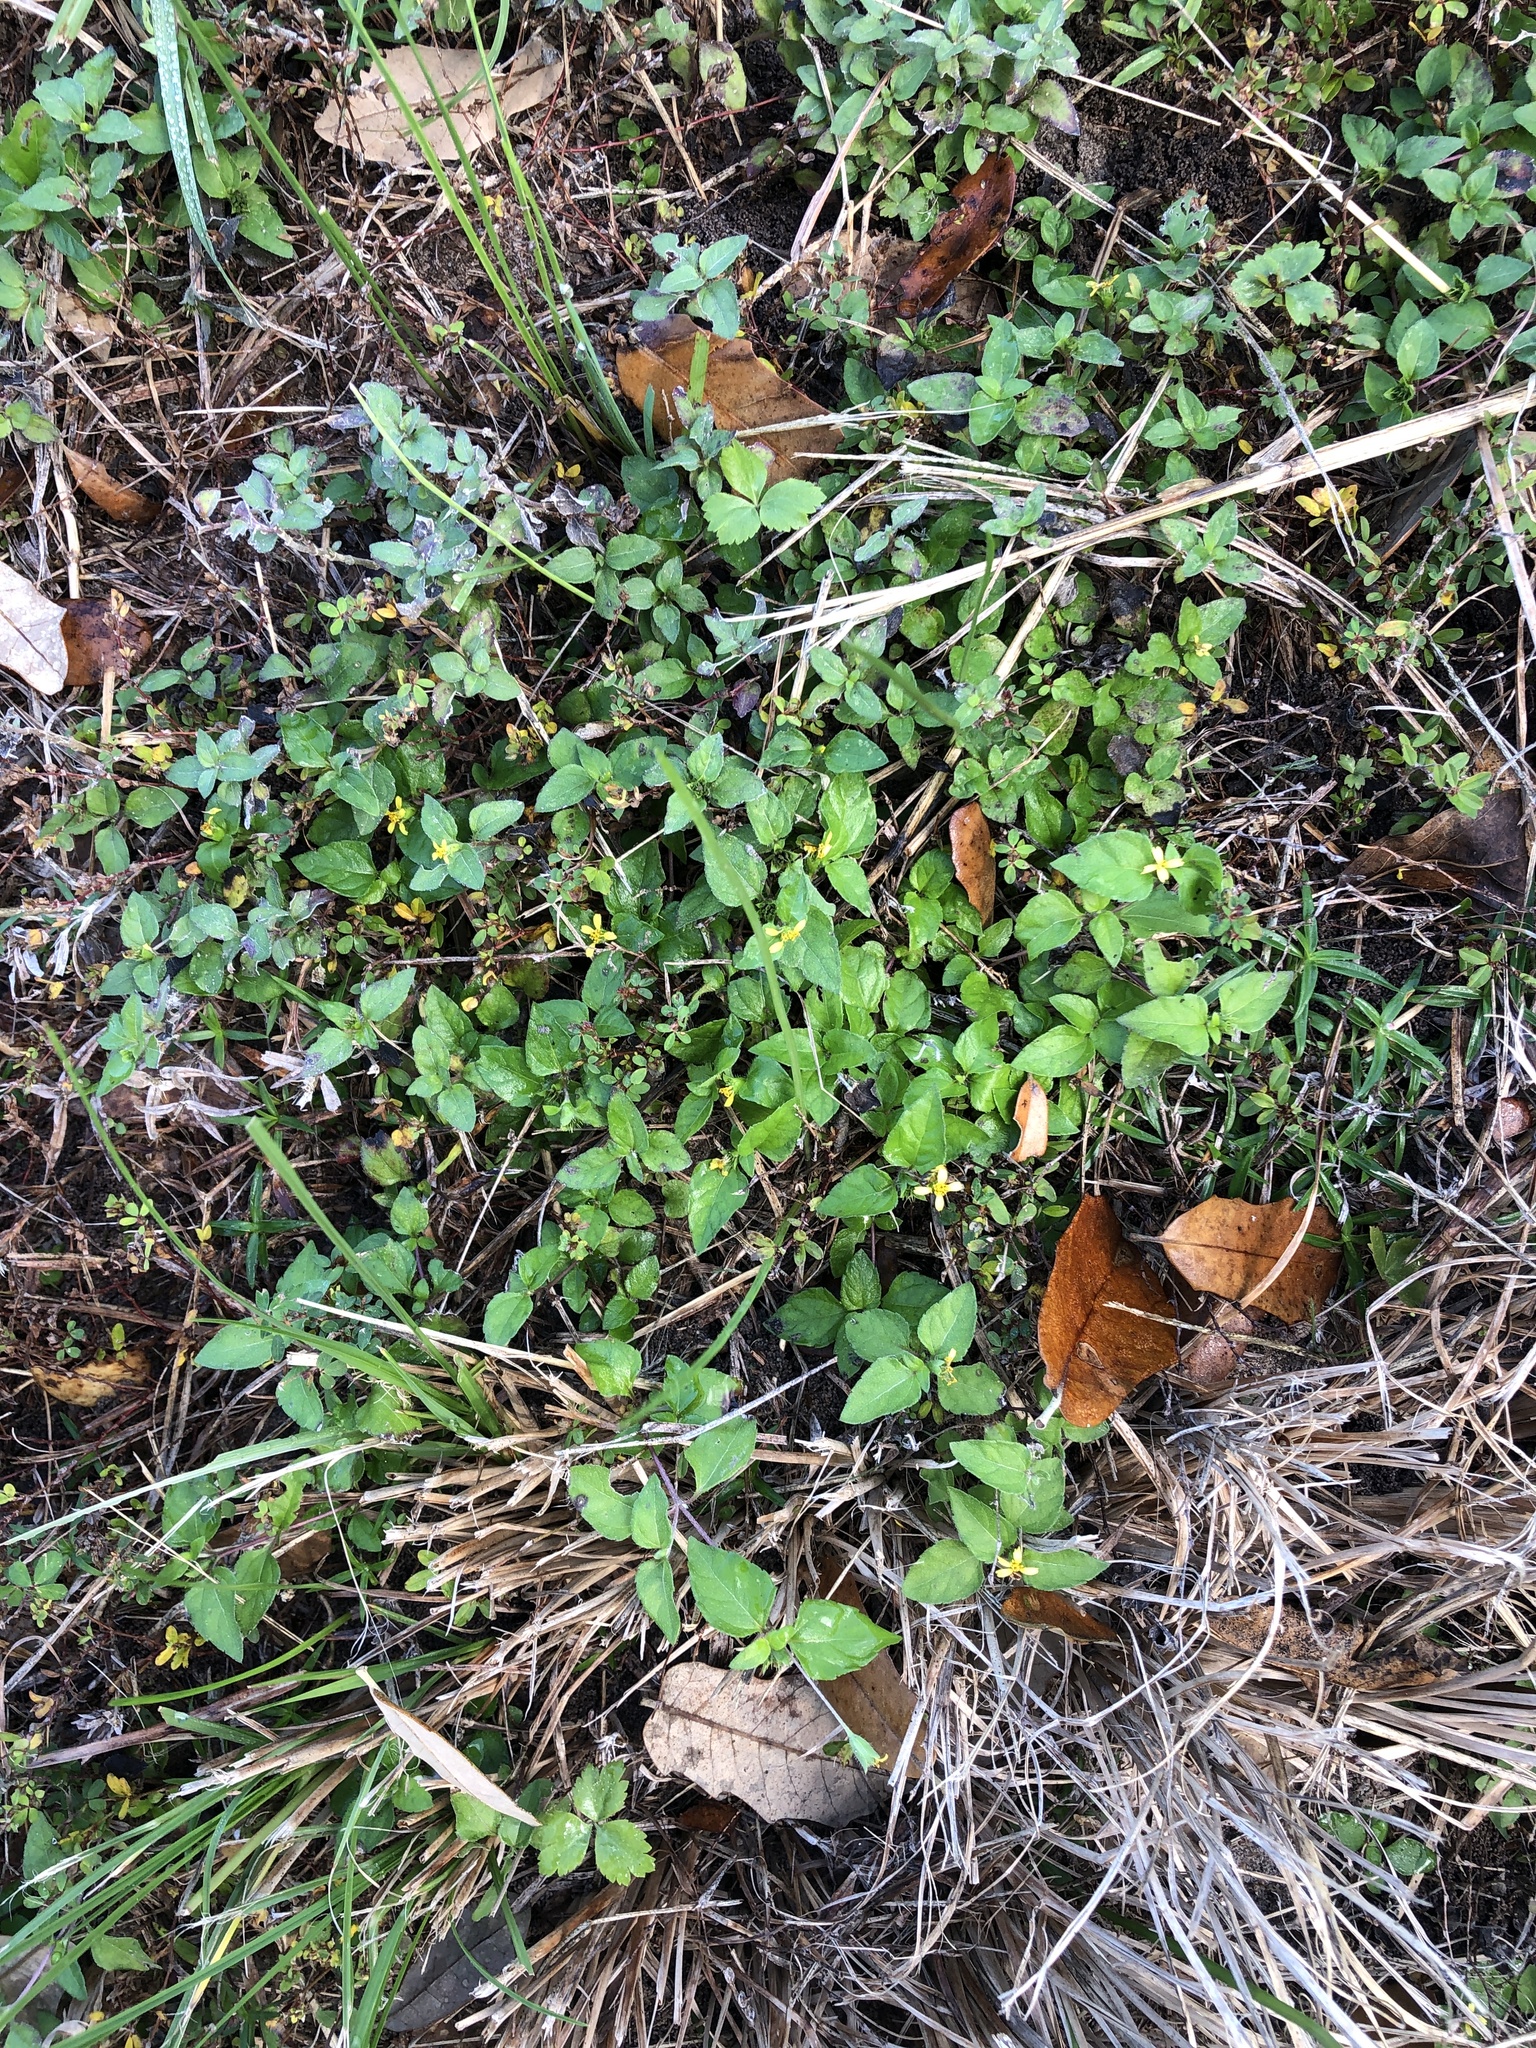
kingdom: Plantae
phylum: Tracheophyta
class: Magnoliopsida
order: Asterales
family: Asteraceae
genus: Calyptocarpus
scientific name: Calyptocarpus vialis
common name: Straggler daisy
